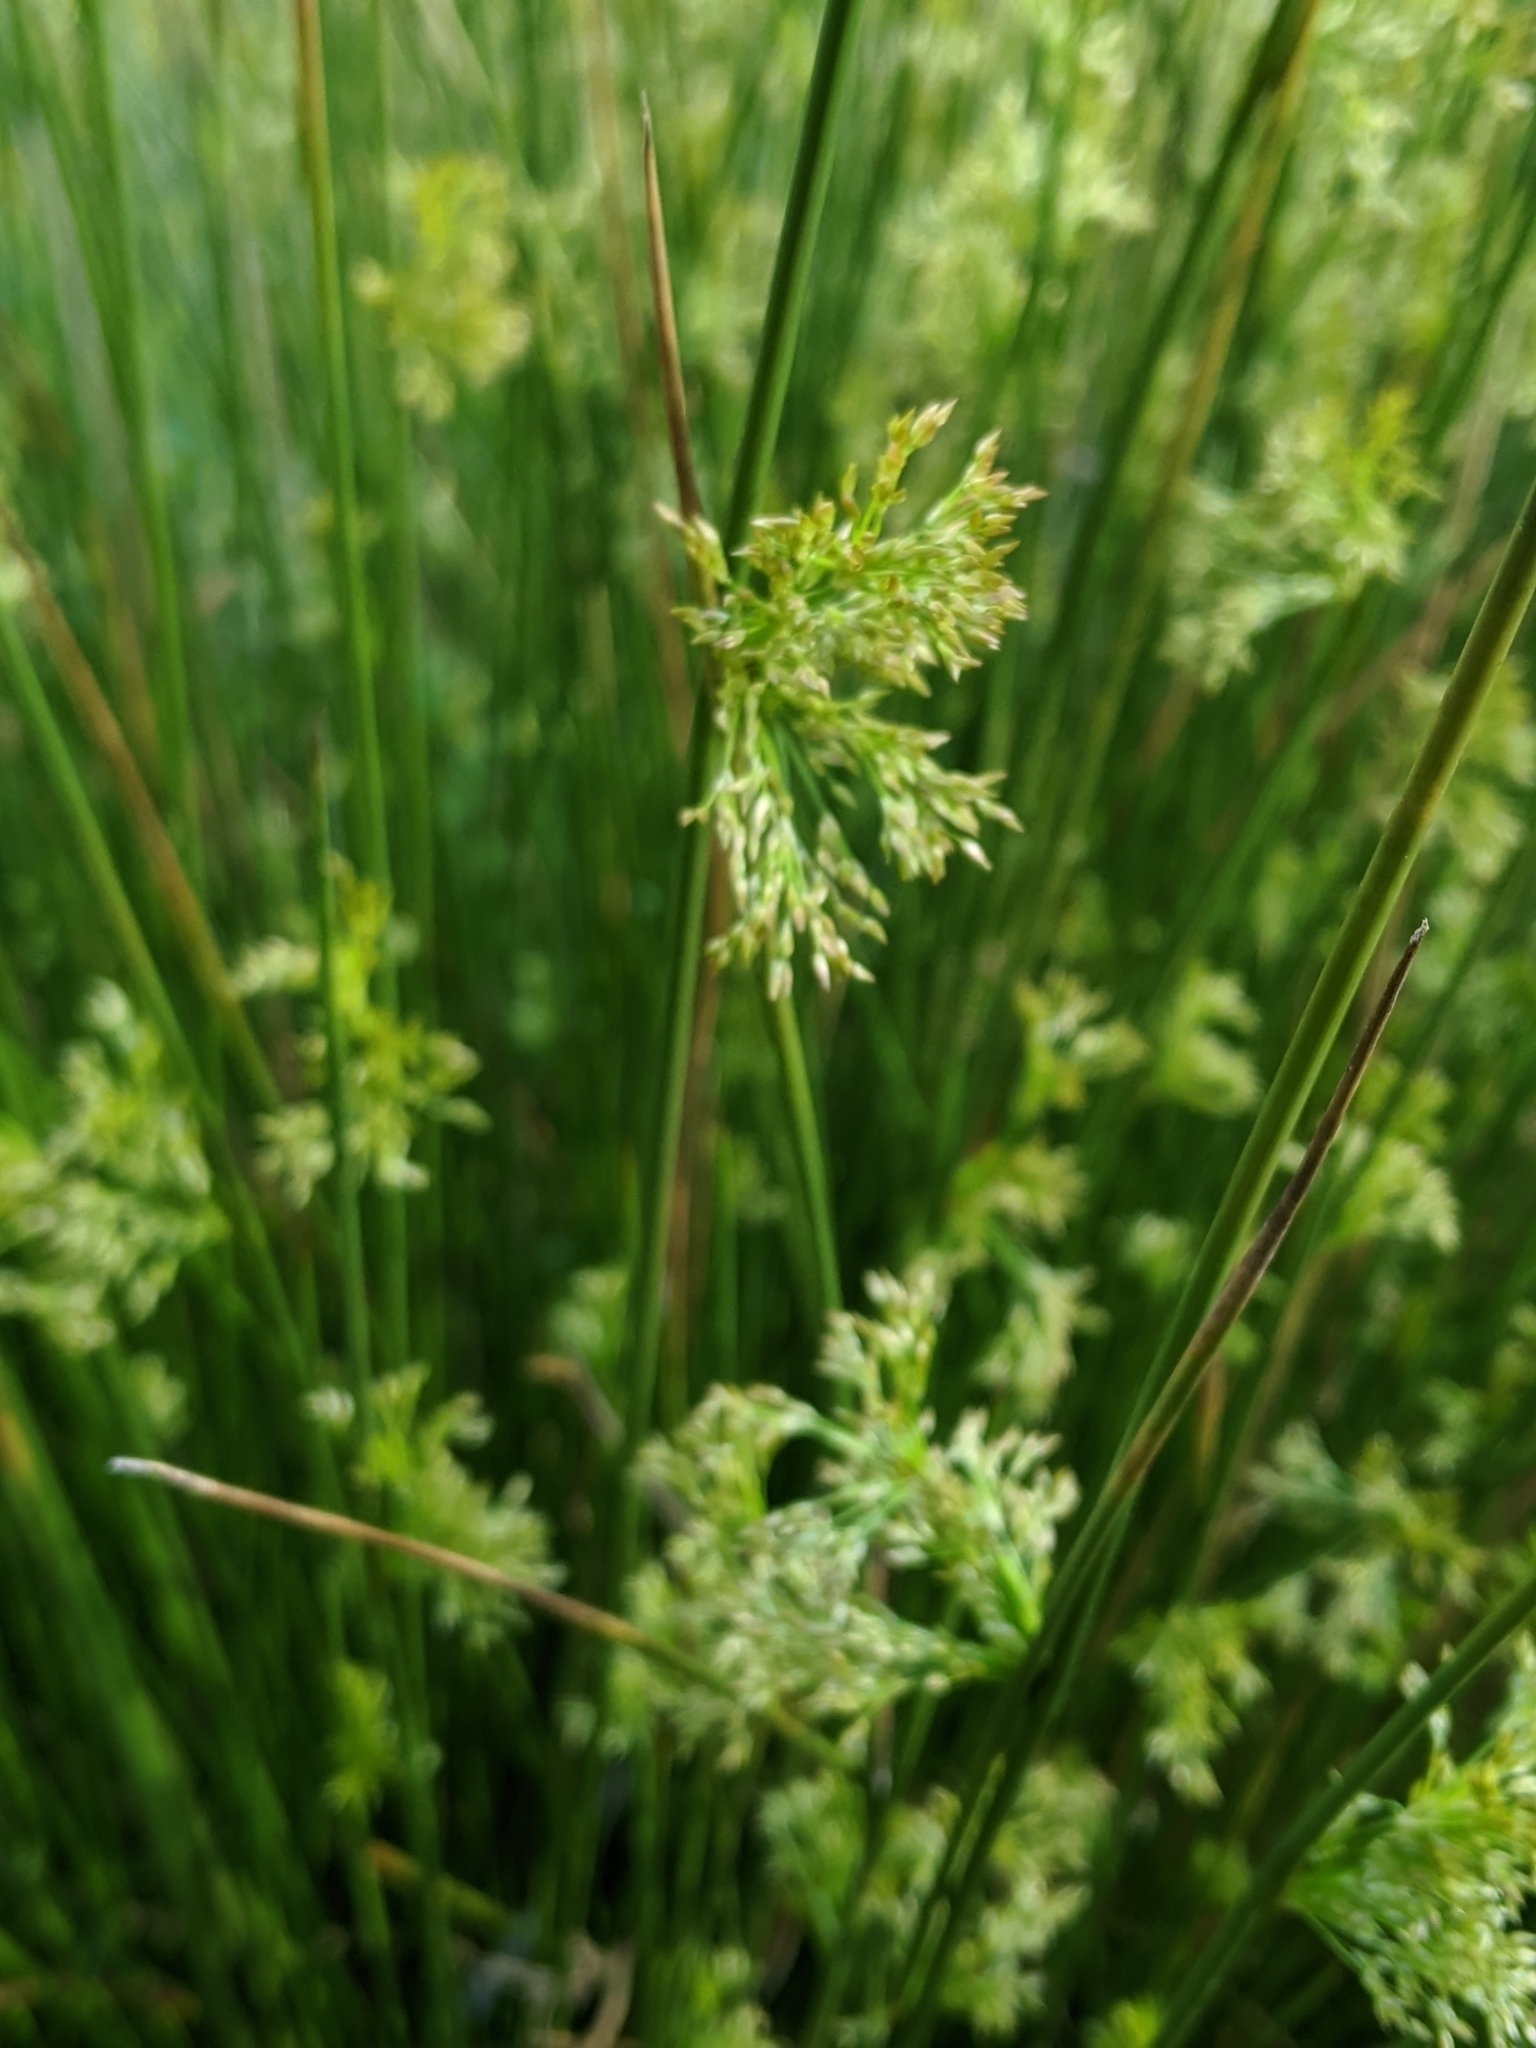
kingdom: Plantae
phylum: Tracheophyta
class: Liliopsida
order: Poales
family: Juncaceae
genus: Juncus
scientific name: Juncus effusus
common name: Soft rush
